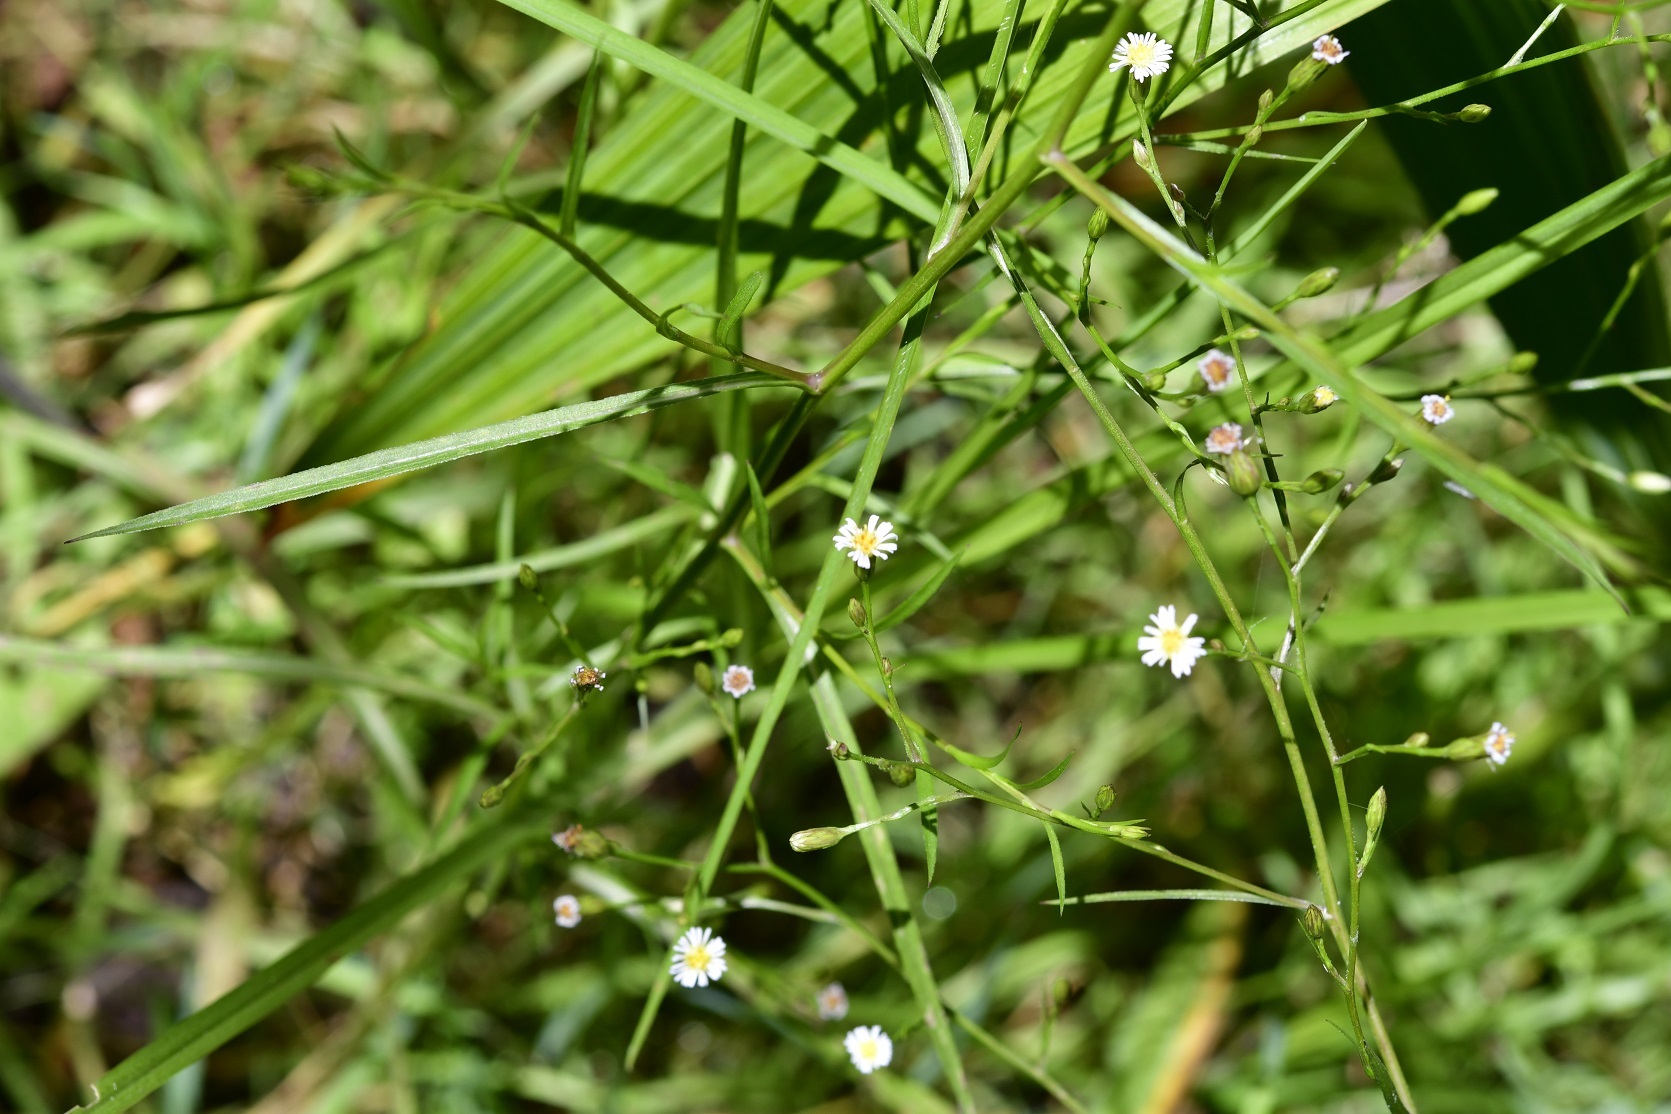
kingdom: Plantae
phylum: Tracheophyta
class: Magnoliopsida
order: Asterales
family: Asteraceae
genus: Symphyotrichum
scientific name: Symphyotrichum subulatum
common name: Annual saltmarsh aster
